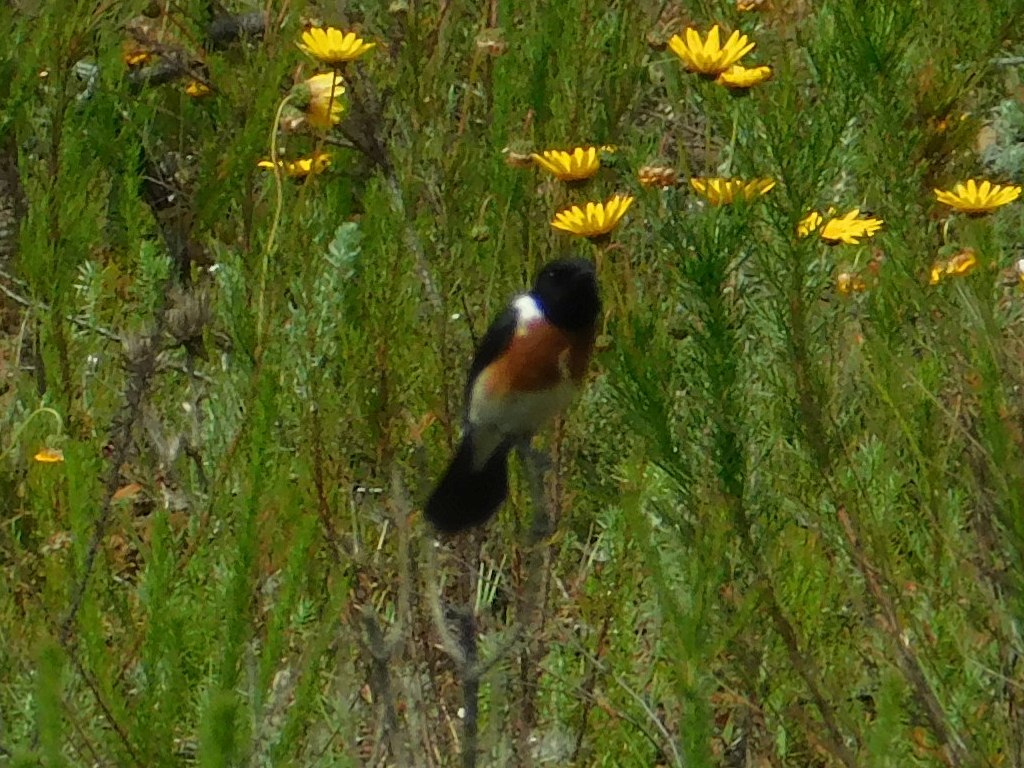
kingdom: Animalia
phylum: Chordata
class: Aves
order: Passeriformes
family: Muscicapidae
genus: Saxicola
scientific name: Saxicola torquatus
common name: African stonechat
